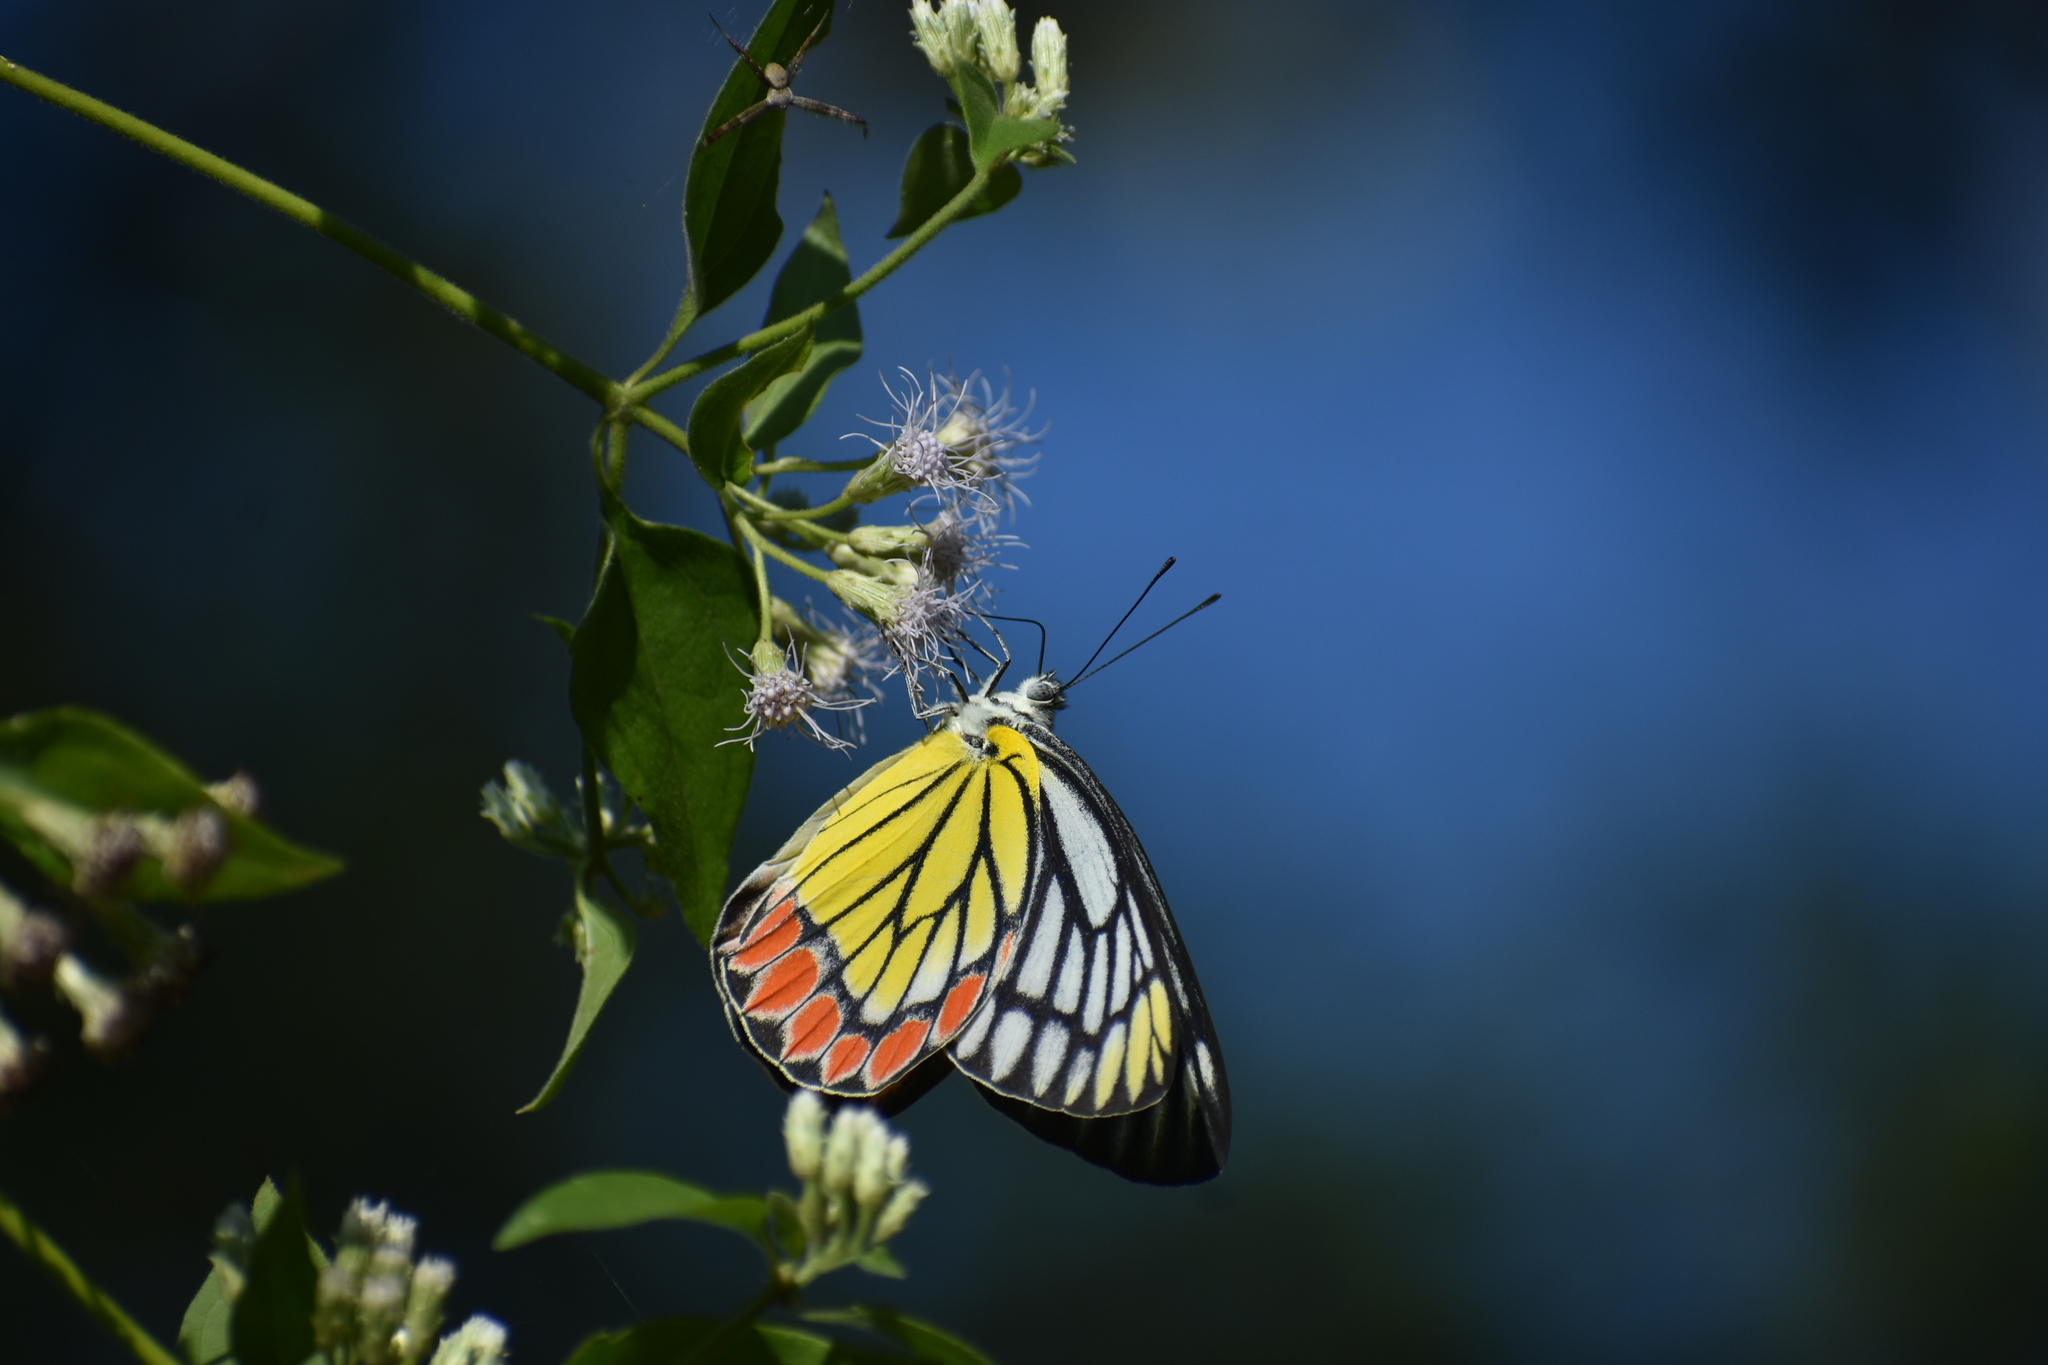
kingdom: Animalia
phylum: Arthropoda
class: Insecta
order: Lepidoptera
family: Pieridae
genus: Delias
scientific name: Delias eucharis
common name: Common jezebel
